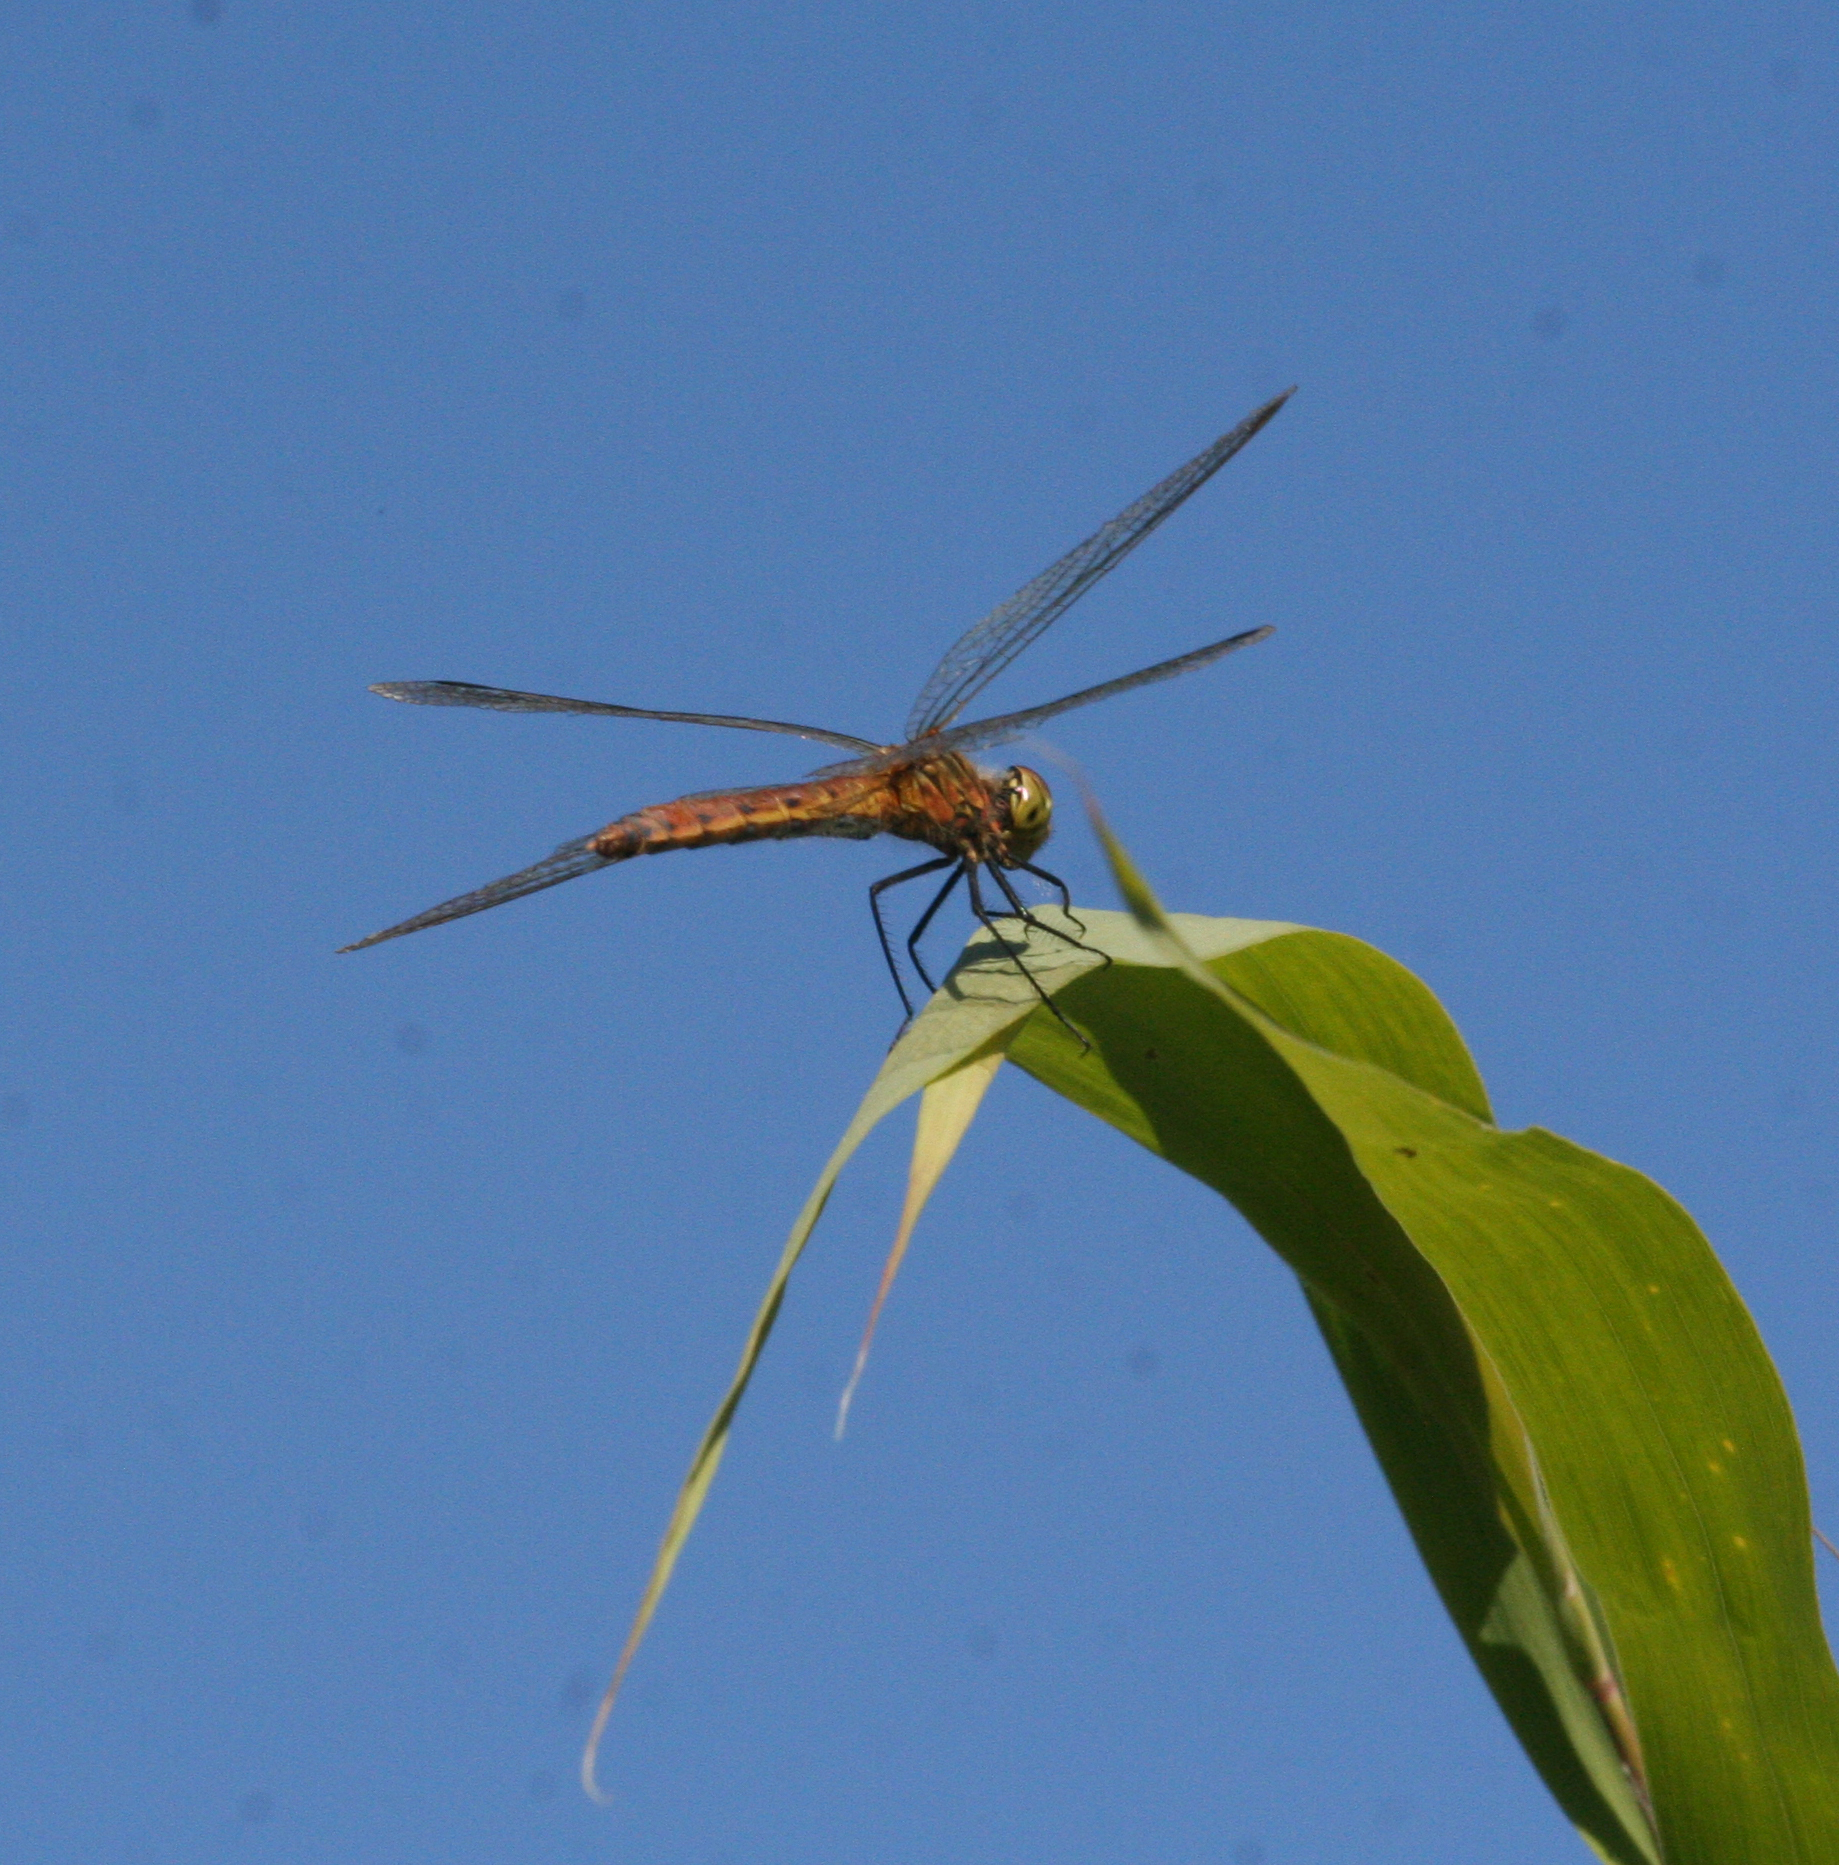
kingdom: Animalia
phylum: Arthropoda
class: Insecta
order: Odonata
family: Libellulidae
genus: Sympetrum
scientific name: Sympetrum depressiusculum
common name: Spotted darter
